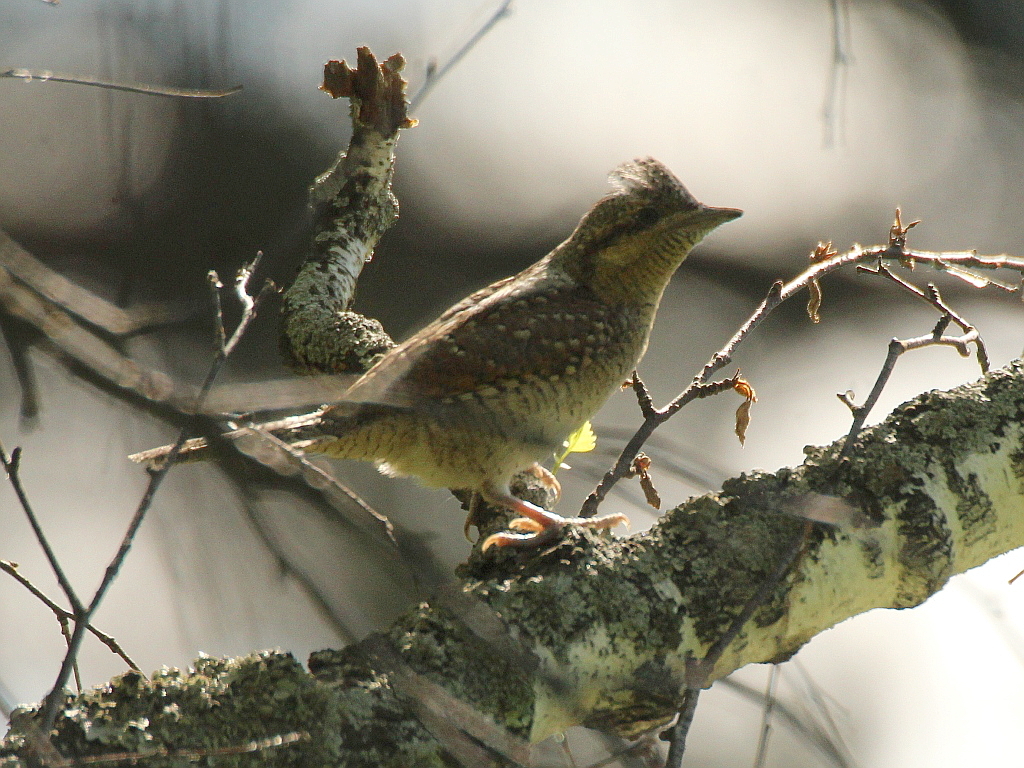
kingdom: Animalia
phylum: Chordata
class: Aves
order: Piciformes
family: Picidae
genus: Jynx
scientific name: Jynx torquilla
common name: Eurasian wryneck
